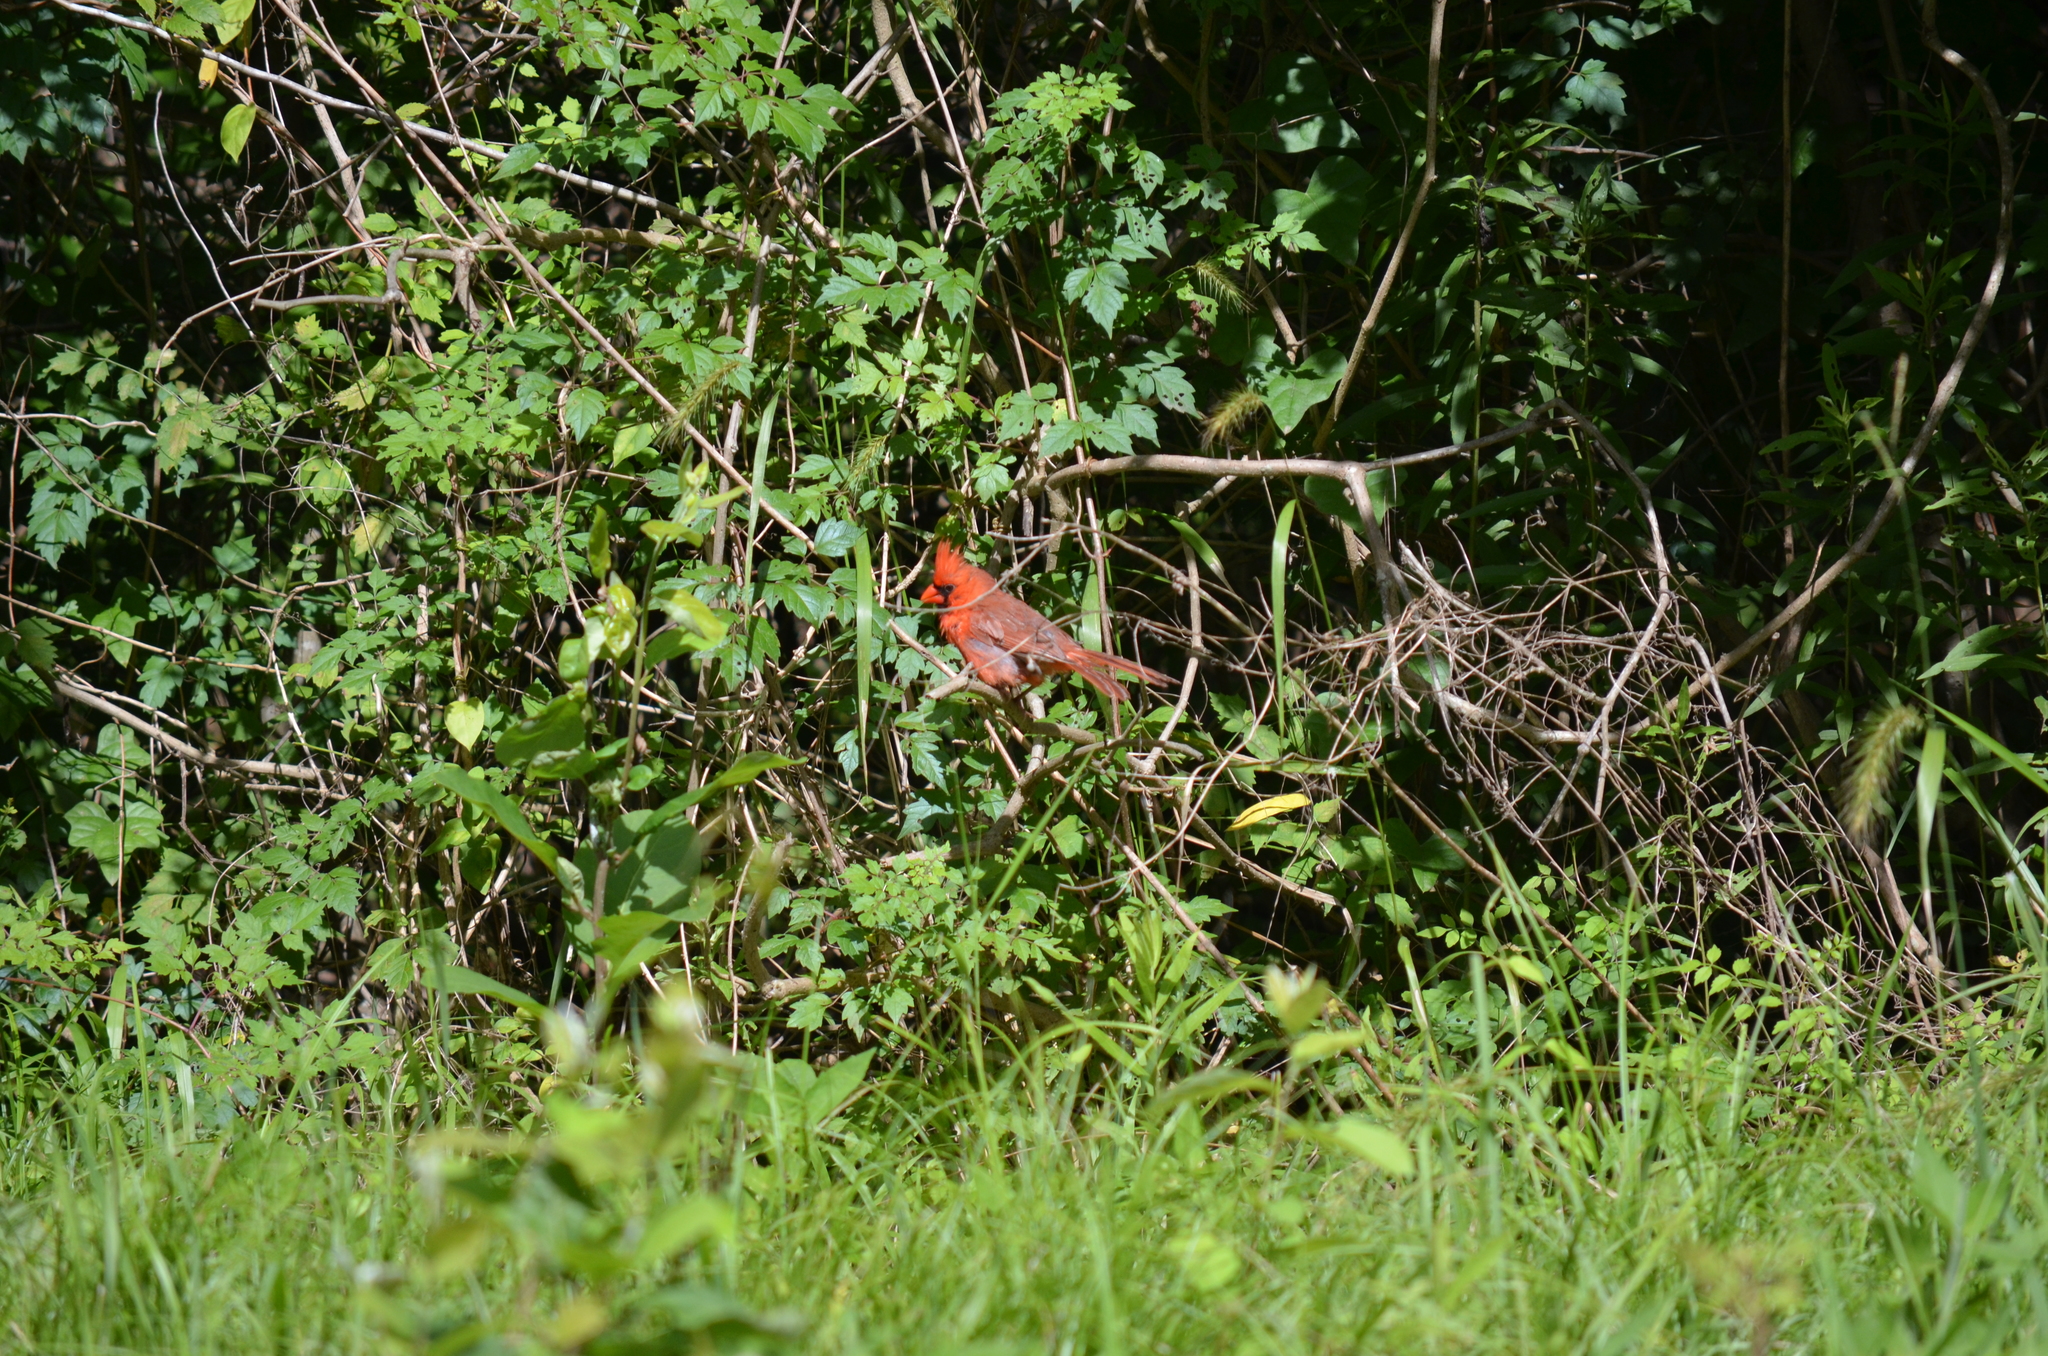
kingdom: Animalia
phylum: Chordata
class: Aves
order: Passeriformes
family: Cardinalidae
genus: Cardinalis
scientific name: Cardinalis cardinalis
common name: Northern cardinal
